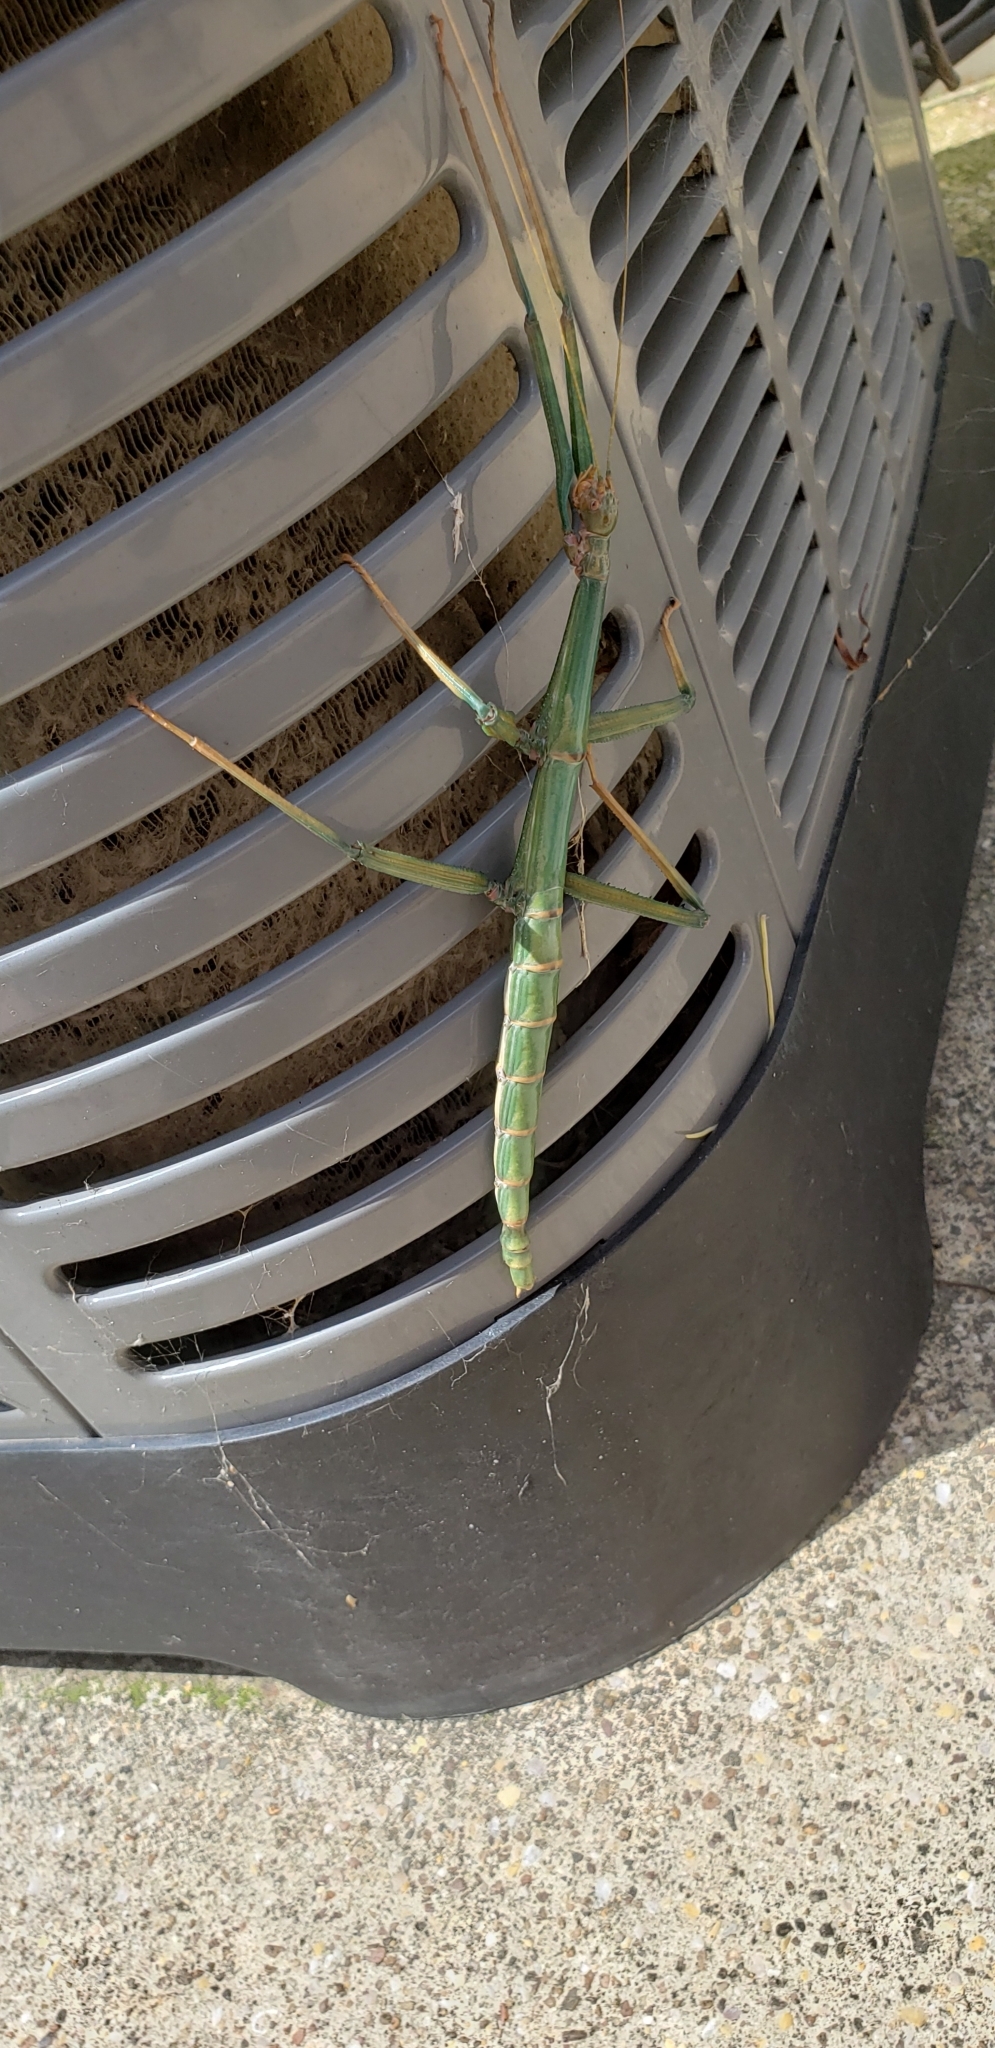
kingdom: Animalia
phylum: Arthropoda
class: Insecta
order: Phasmida
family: Diapheromeridae
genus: Megaphasma
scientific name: Megaphasma denticrus
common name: Giant walkingstick
